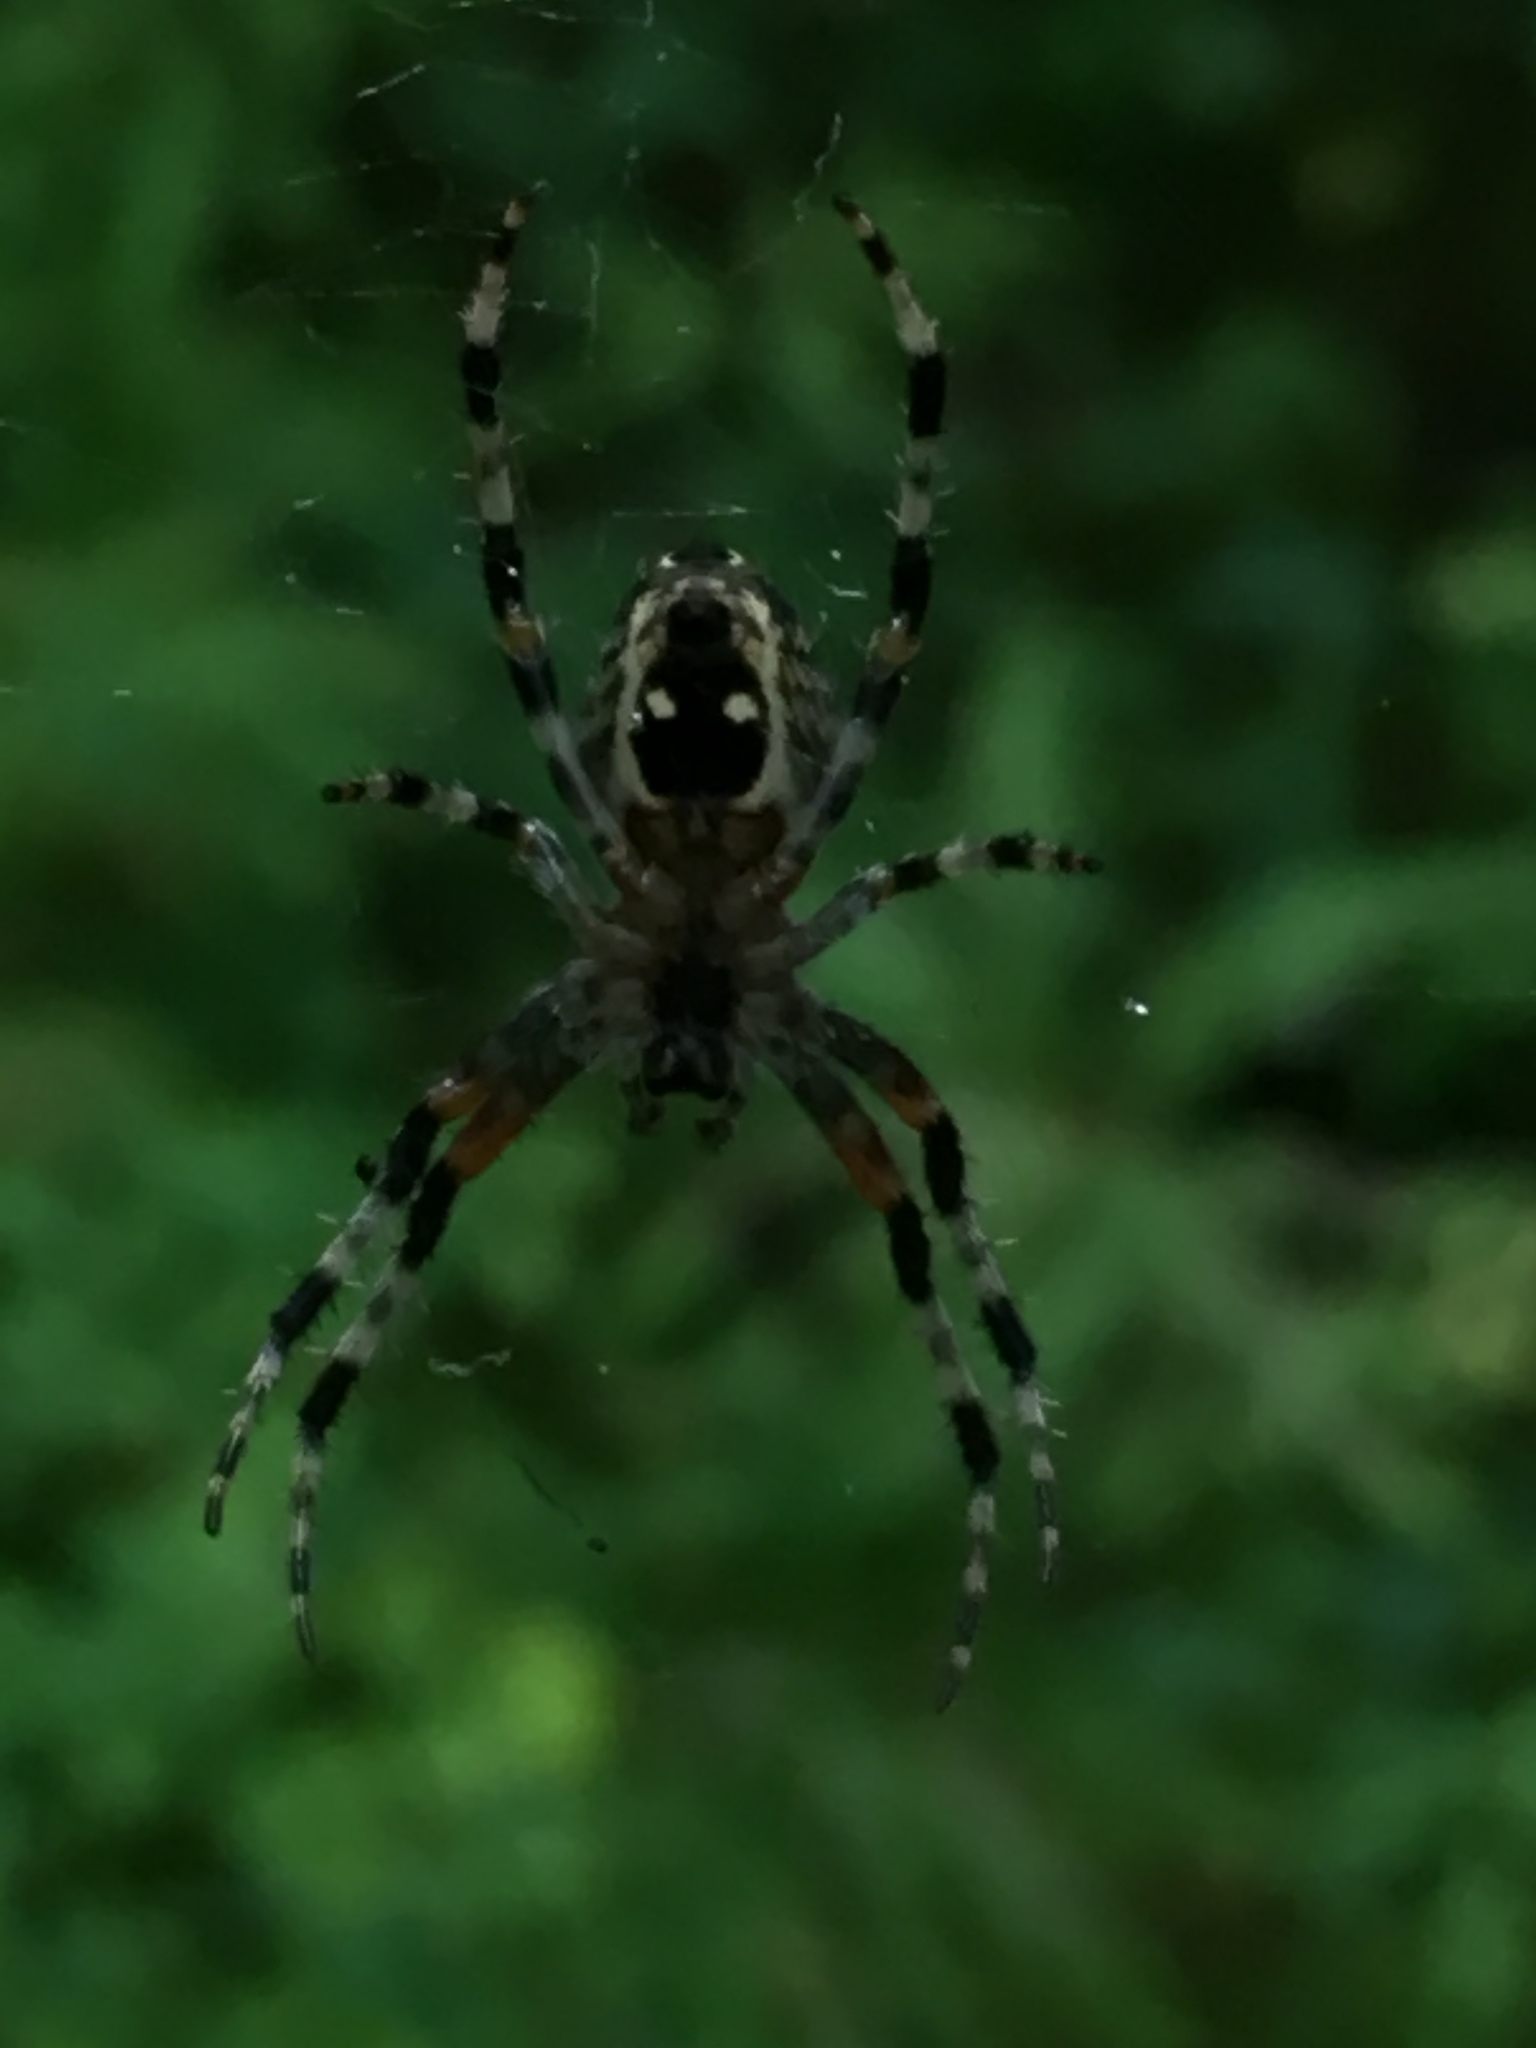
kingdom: Animalia
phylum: Arthropoda
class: Arachnida
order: Araneae
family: Araneidae
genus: Araneus
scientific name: Araneus nordmanni
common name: Nordmann's orbweaver
